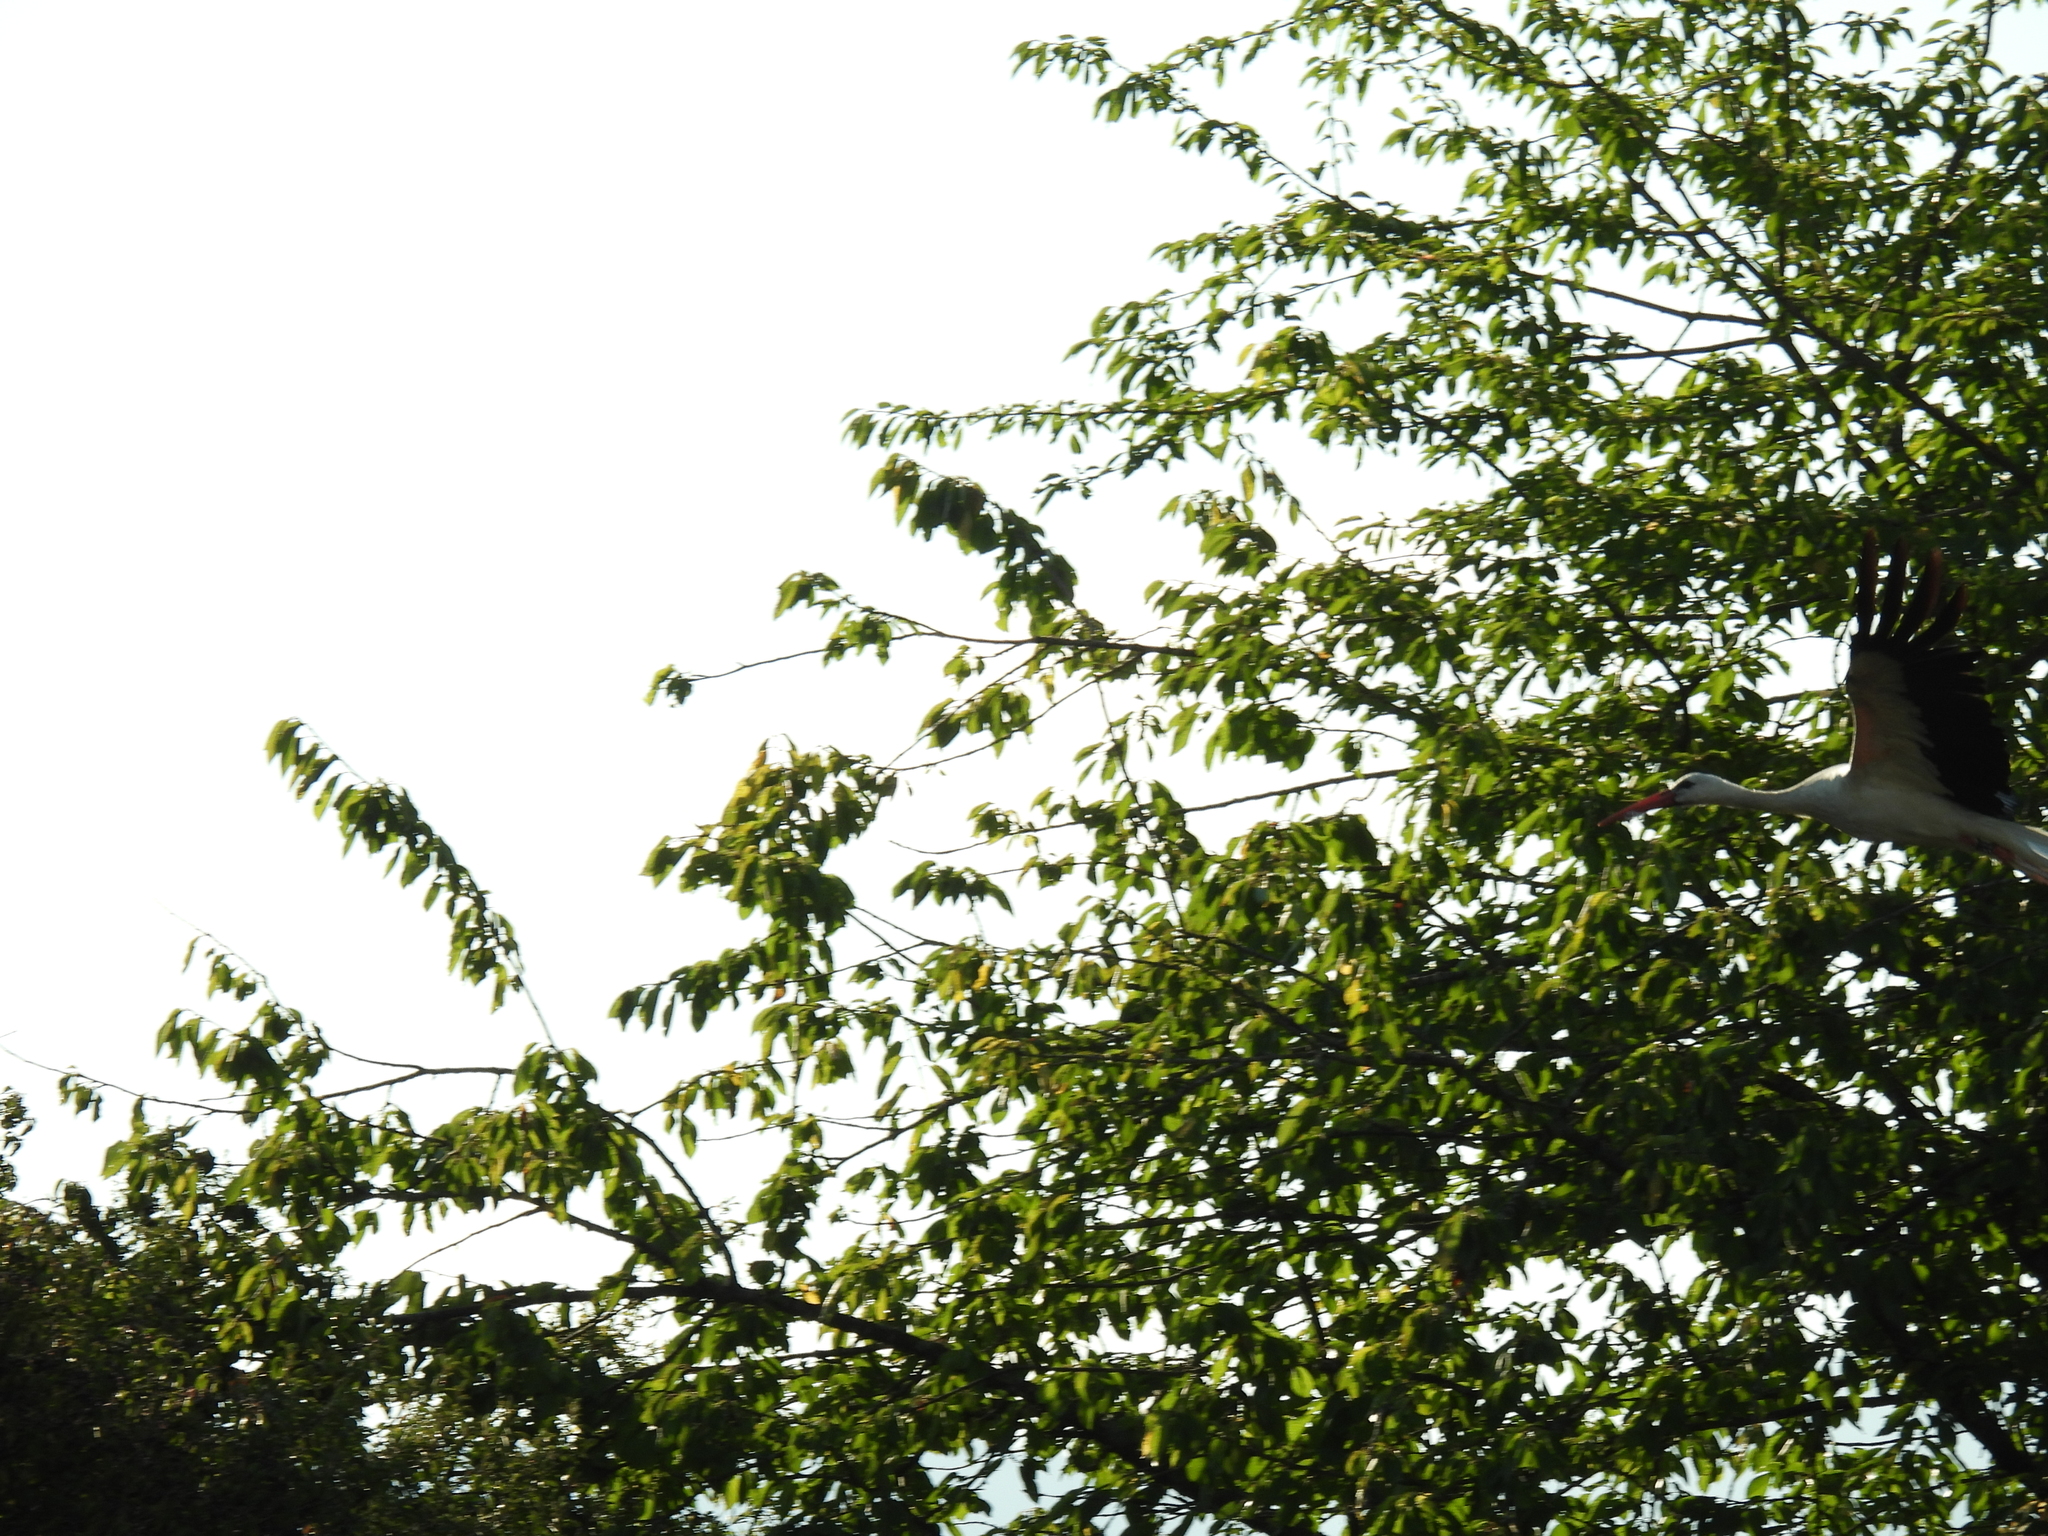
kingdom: Animalia
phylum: Chordata
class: Aves
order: Ciconiiformes
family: Ciconiidae
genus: Ciconia
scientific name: Ciconia ciconia
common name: White stork
